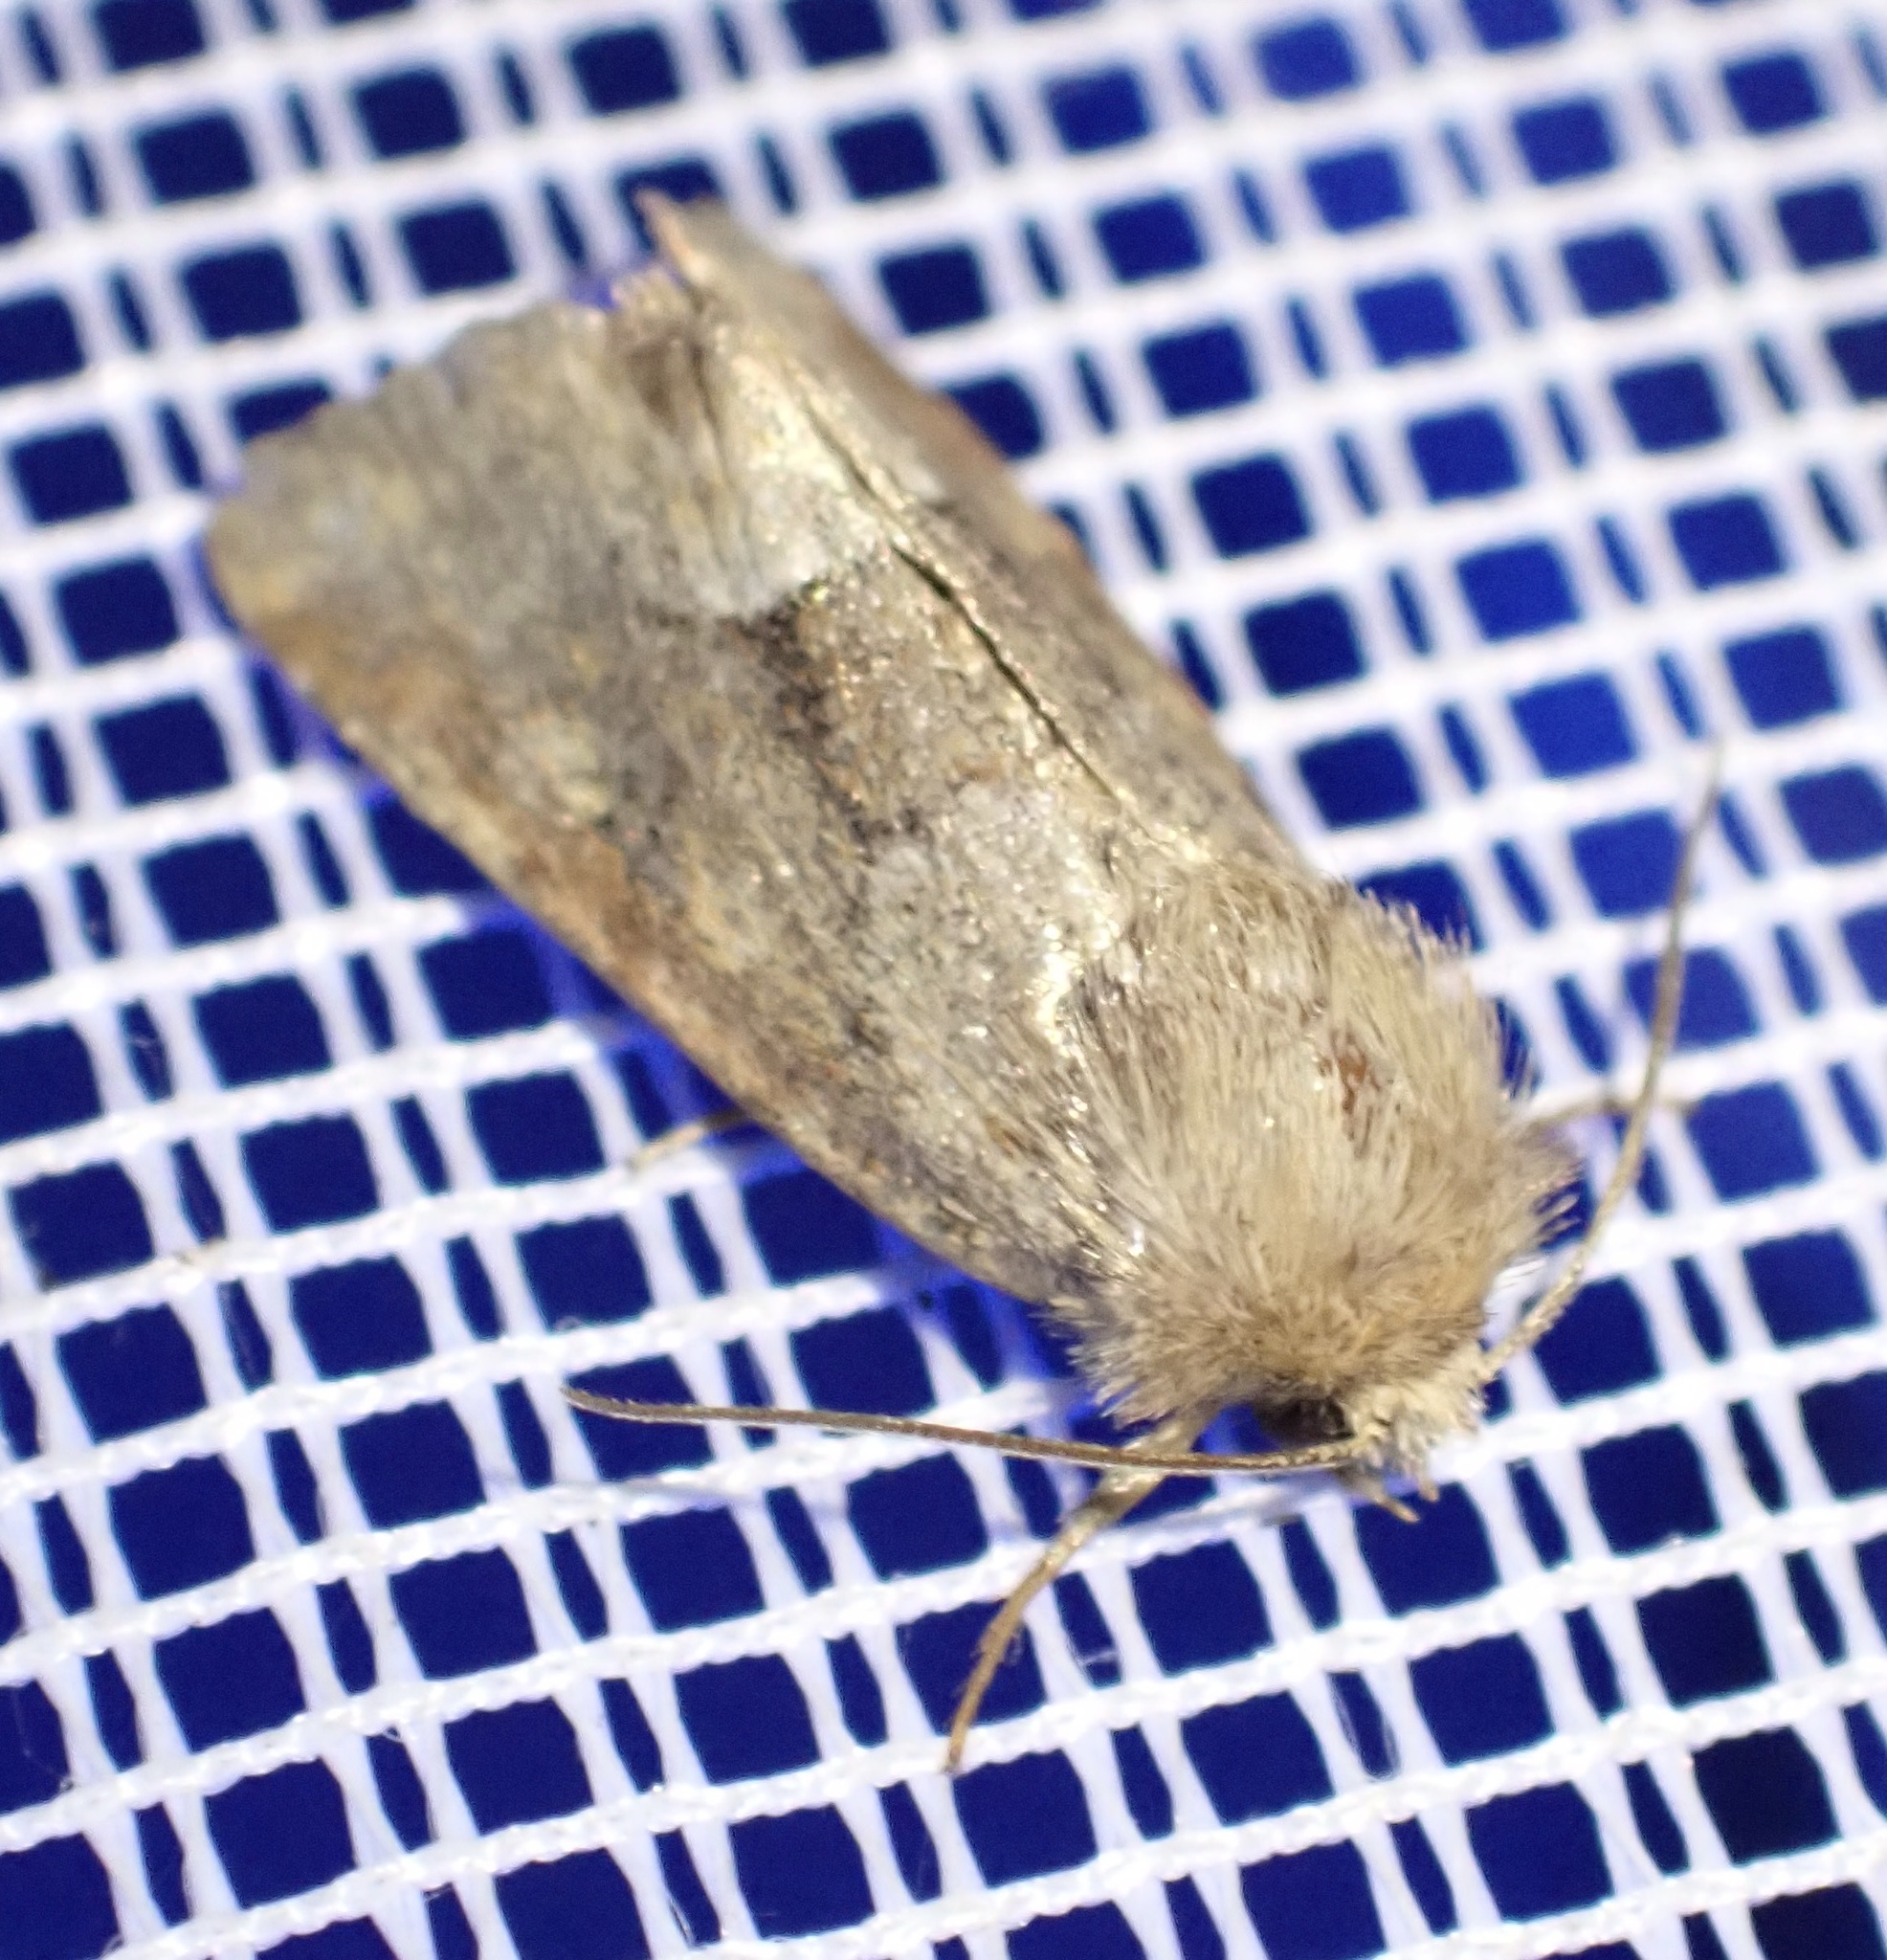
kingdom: Animalia
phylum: Arthropoda
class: Insecta
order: Lepidoptera
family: Noctuidae
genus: Oligia
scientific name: Oligia fasciuncula
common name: Middle-barred minor
